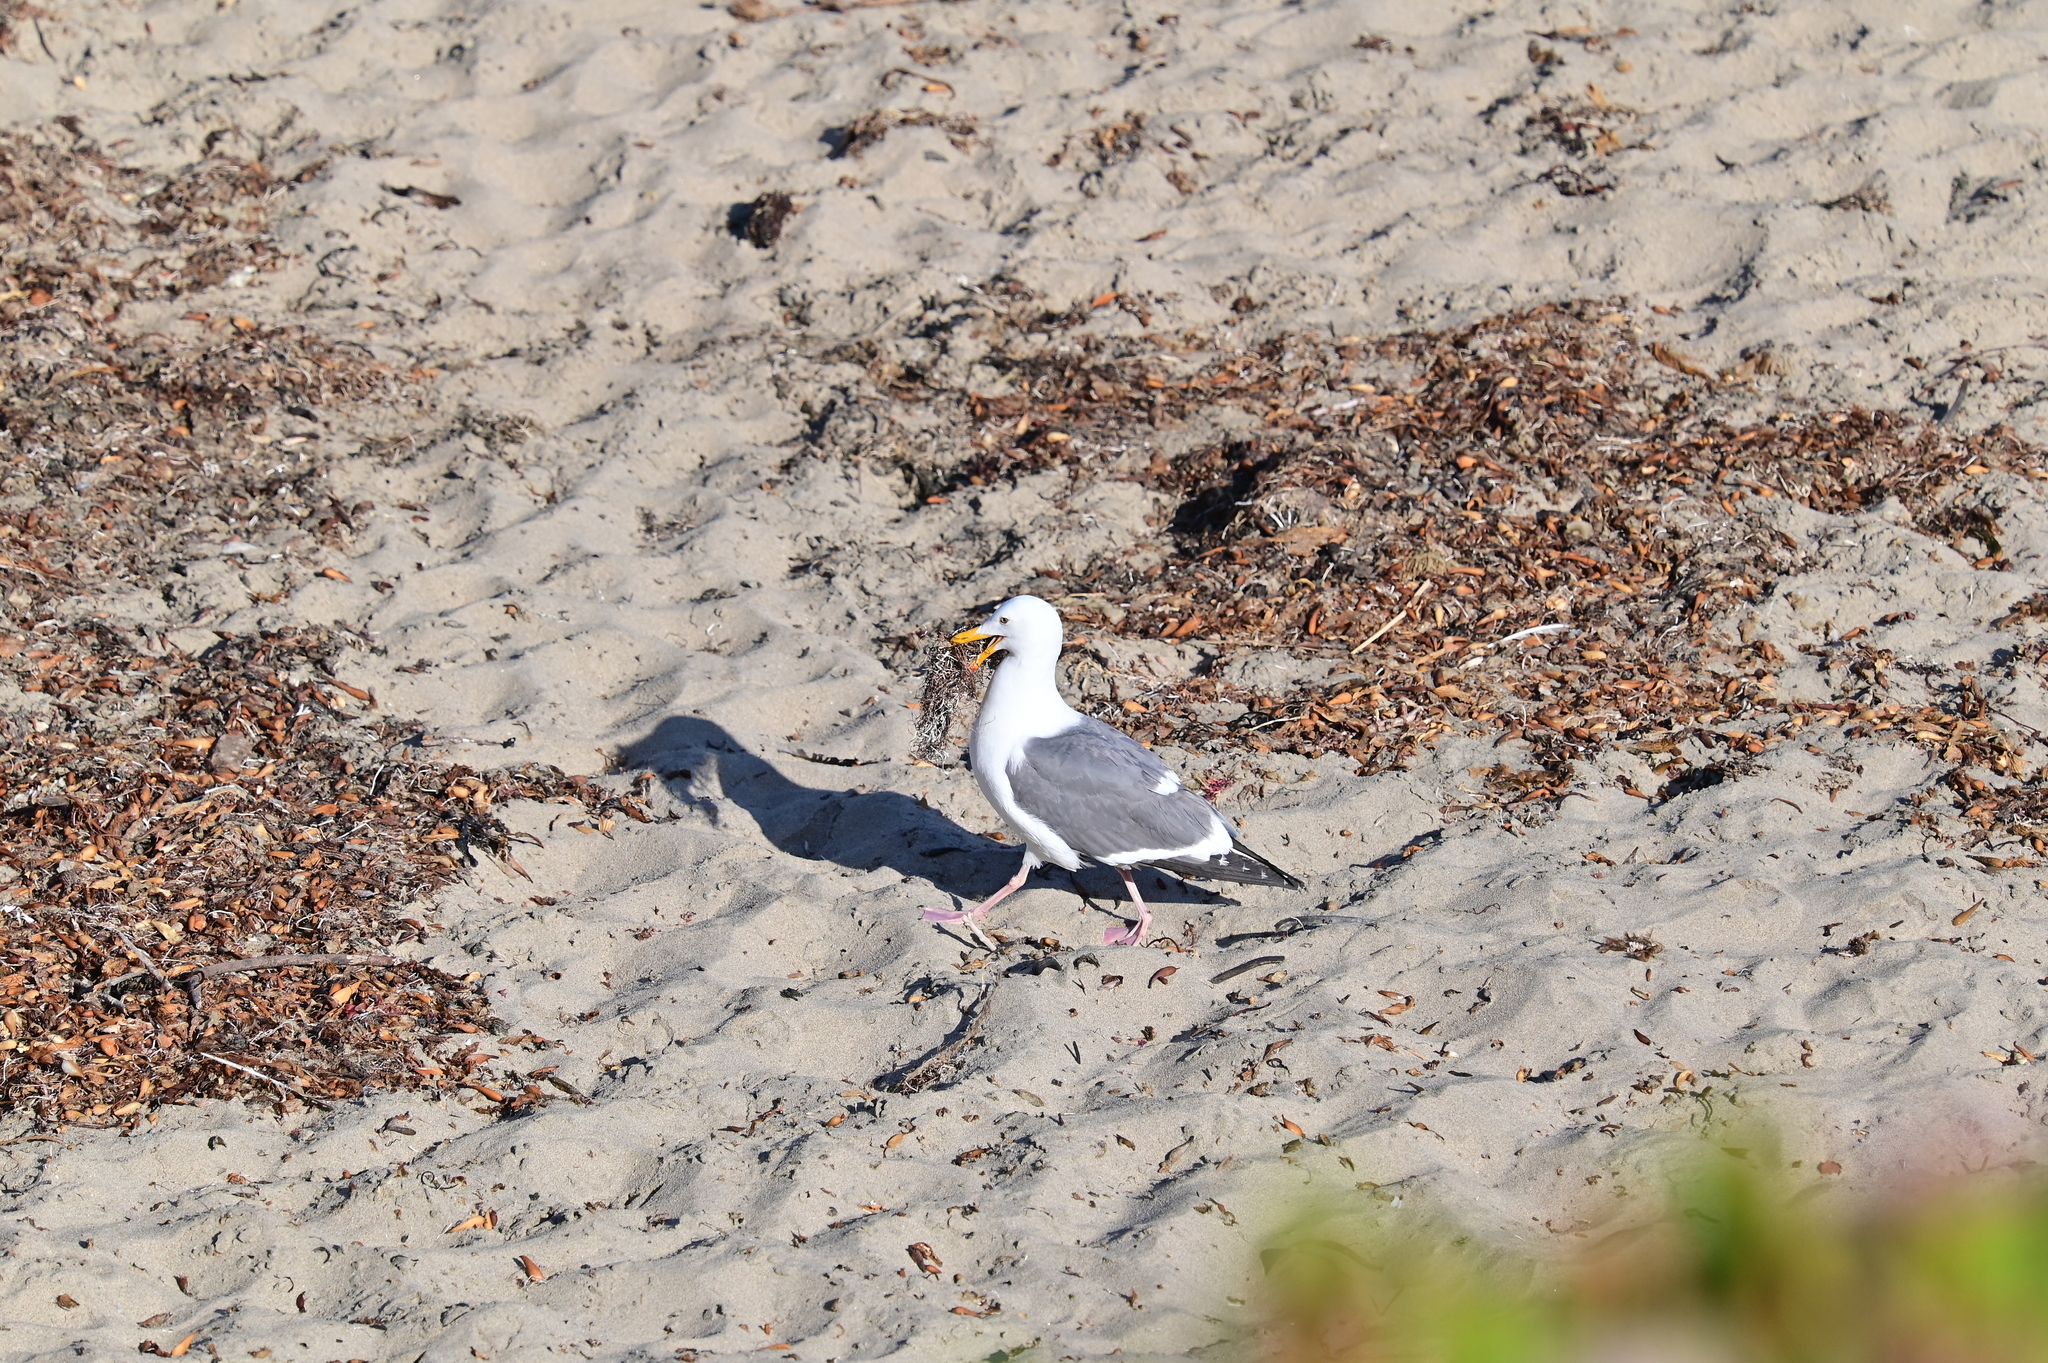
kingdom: Animalia
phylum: Chordata
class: Aves
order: Charadriiformes
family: Laridae
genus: Larus
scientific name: Larus occidentalis
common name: Western gull
